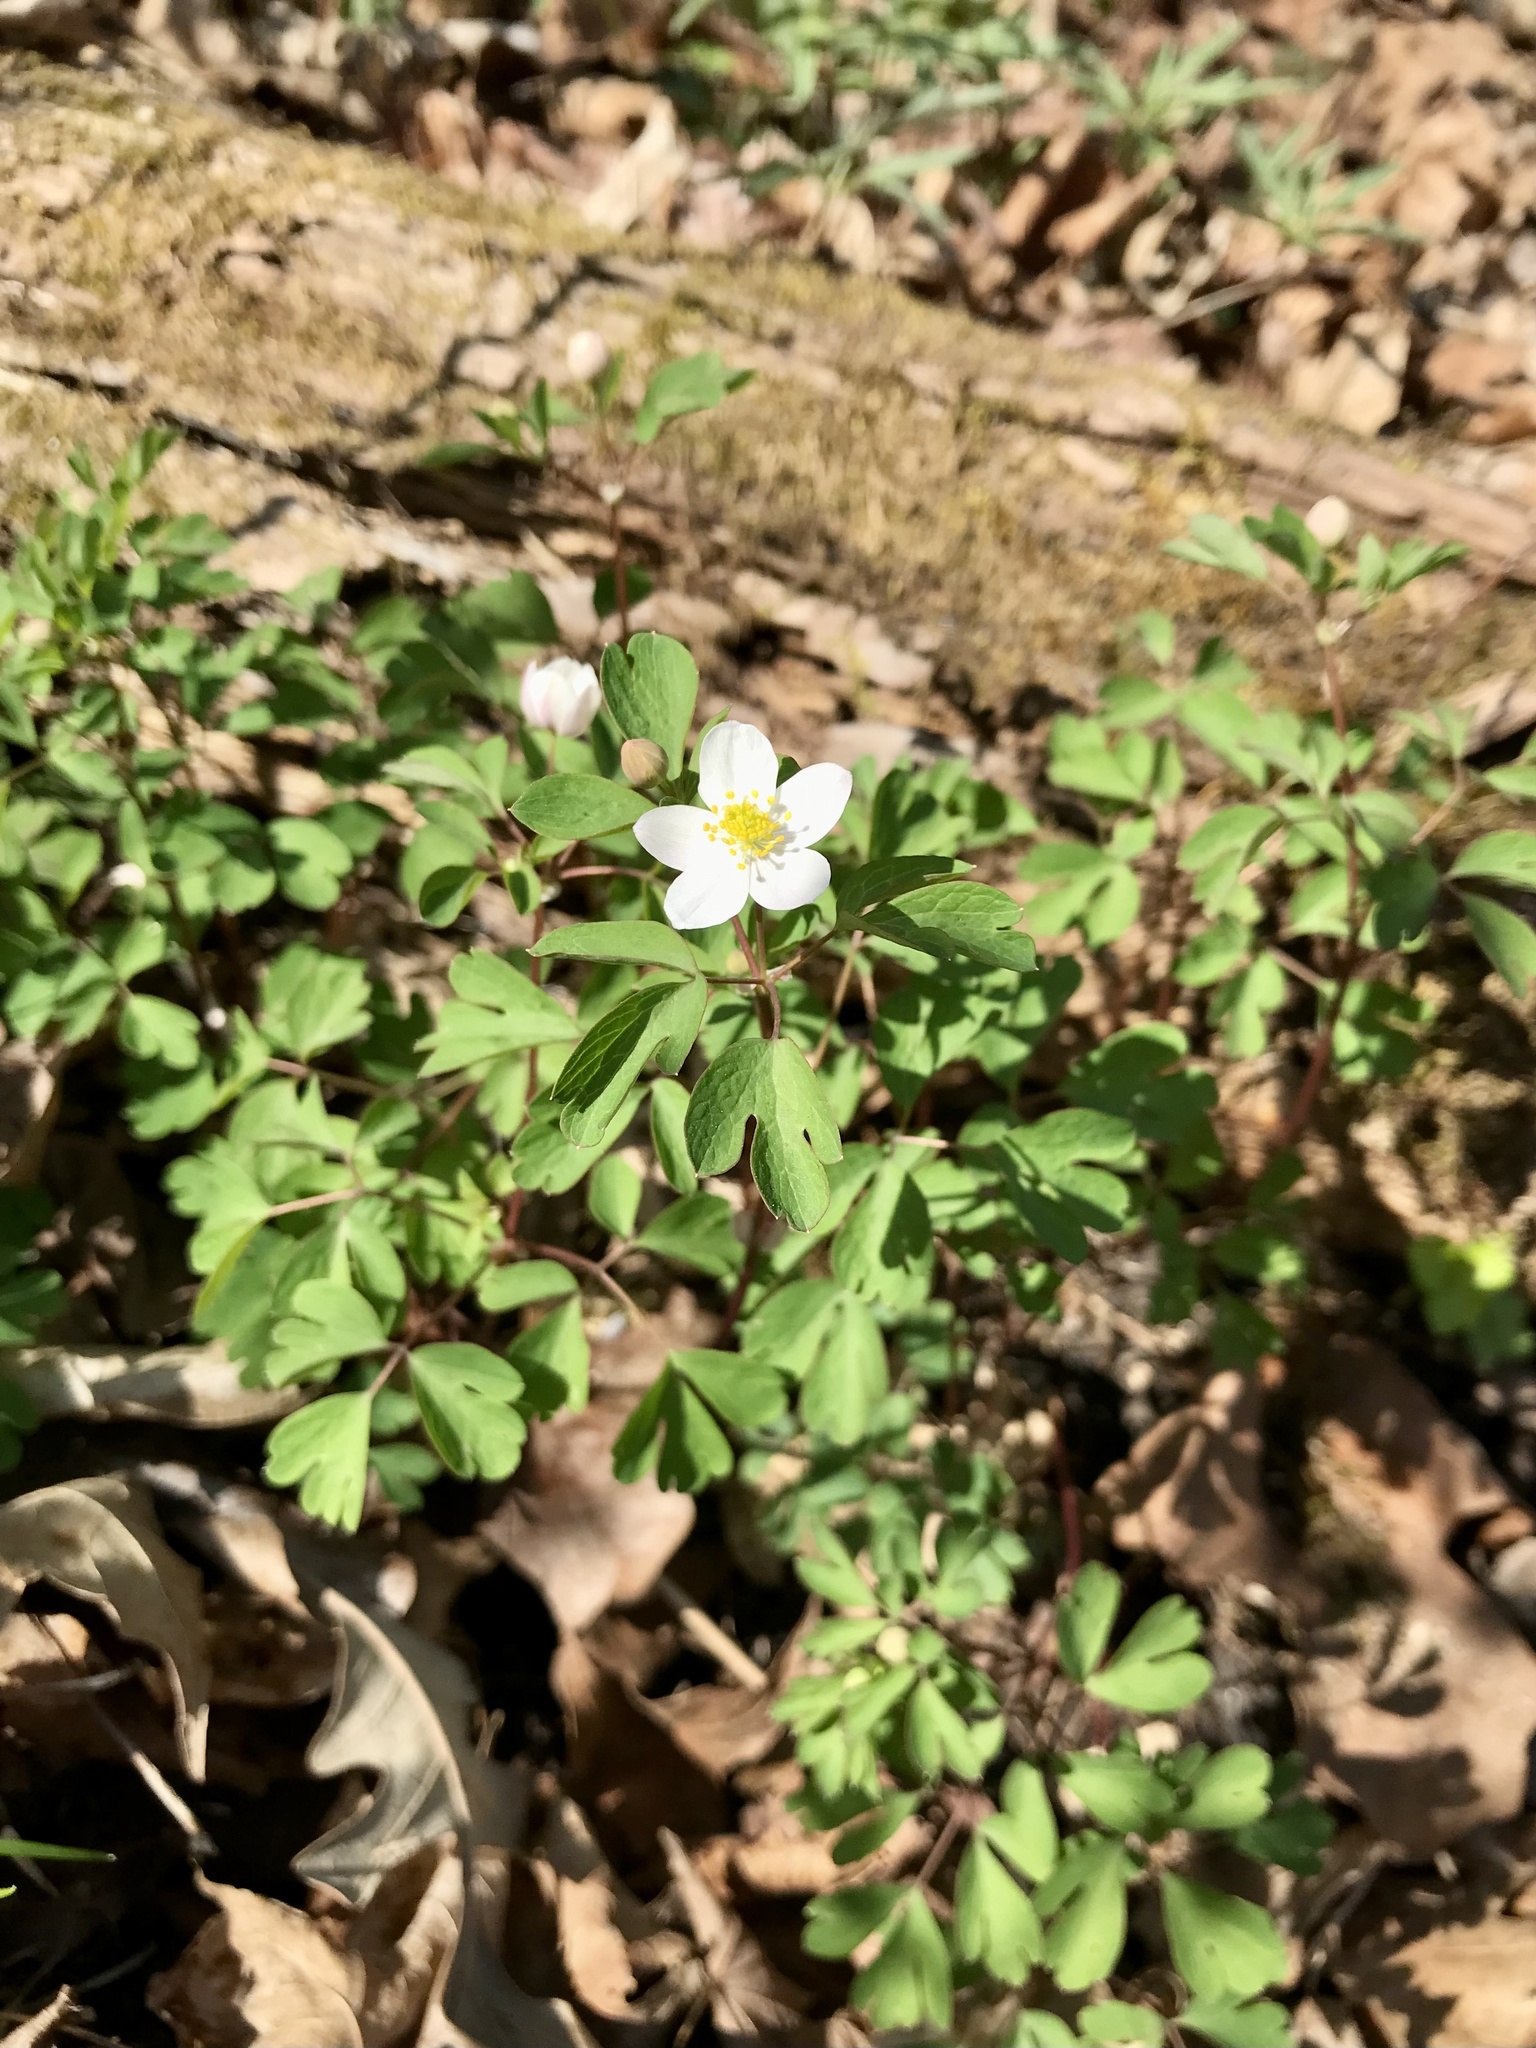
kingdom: Plantae
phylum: Tracheophyta
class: Magnoliopsida
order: Ranunculales
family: Ranunculaceae
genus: Enemion
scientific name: Enemion biternatum
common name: Eastern false rue-anemone
